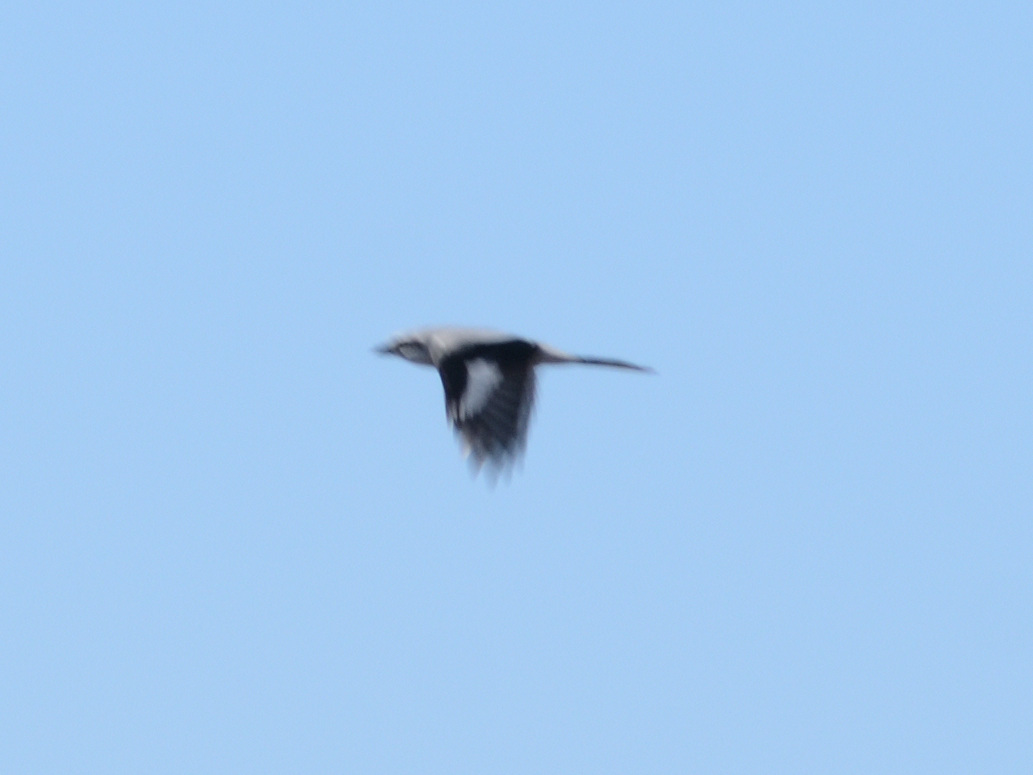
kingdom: Animalia
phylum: Chordata
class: Aves
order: Passeriformes
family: Laniidae
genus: Lanius
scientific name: Lanius excubitor
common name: Great grey shrike
